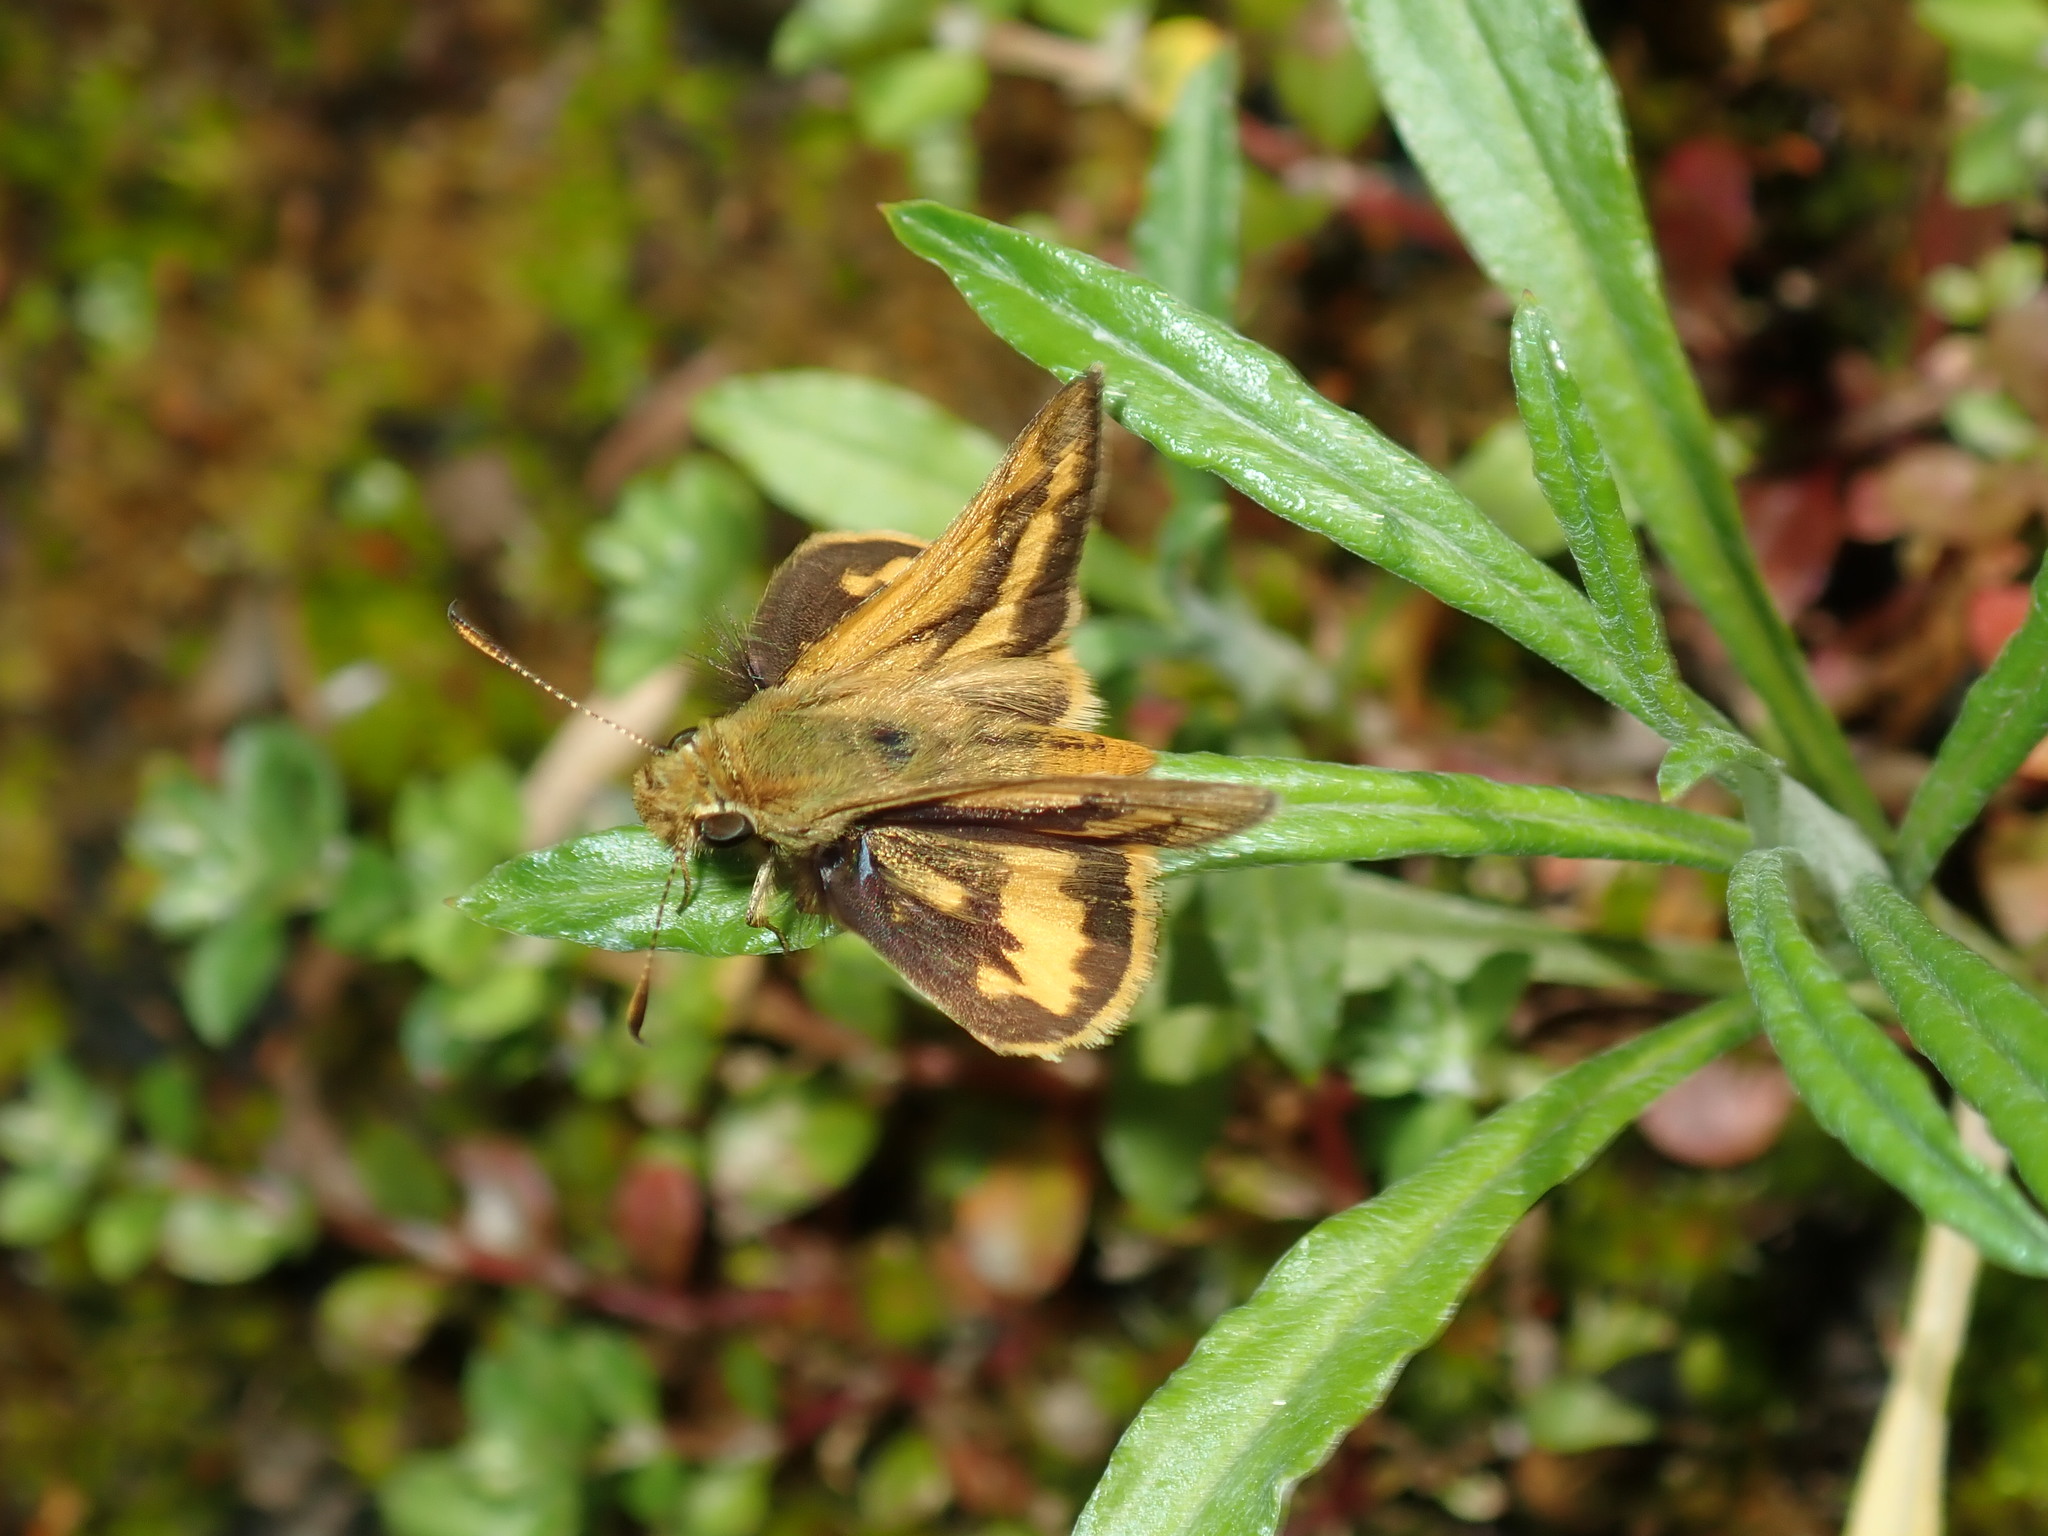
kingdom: Animalia
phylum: Arthropoda
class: Insecta
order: Lepidoptera
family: Hesperiidae
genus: Ocybadistes
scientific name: Ocybadistes walkeri
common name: Yellow-banded dart
